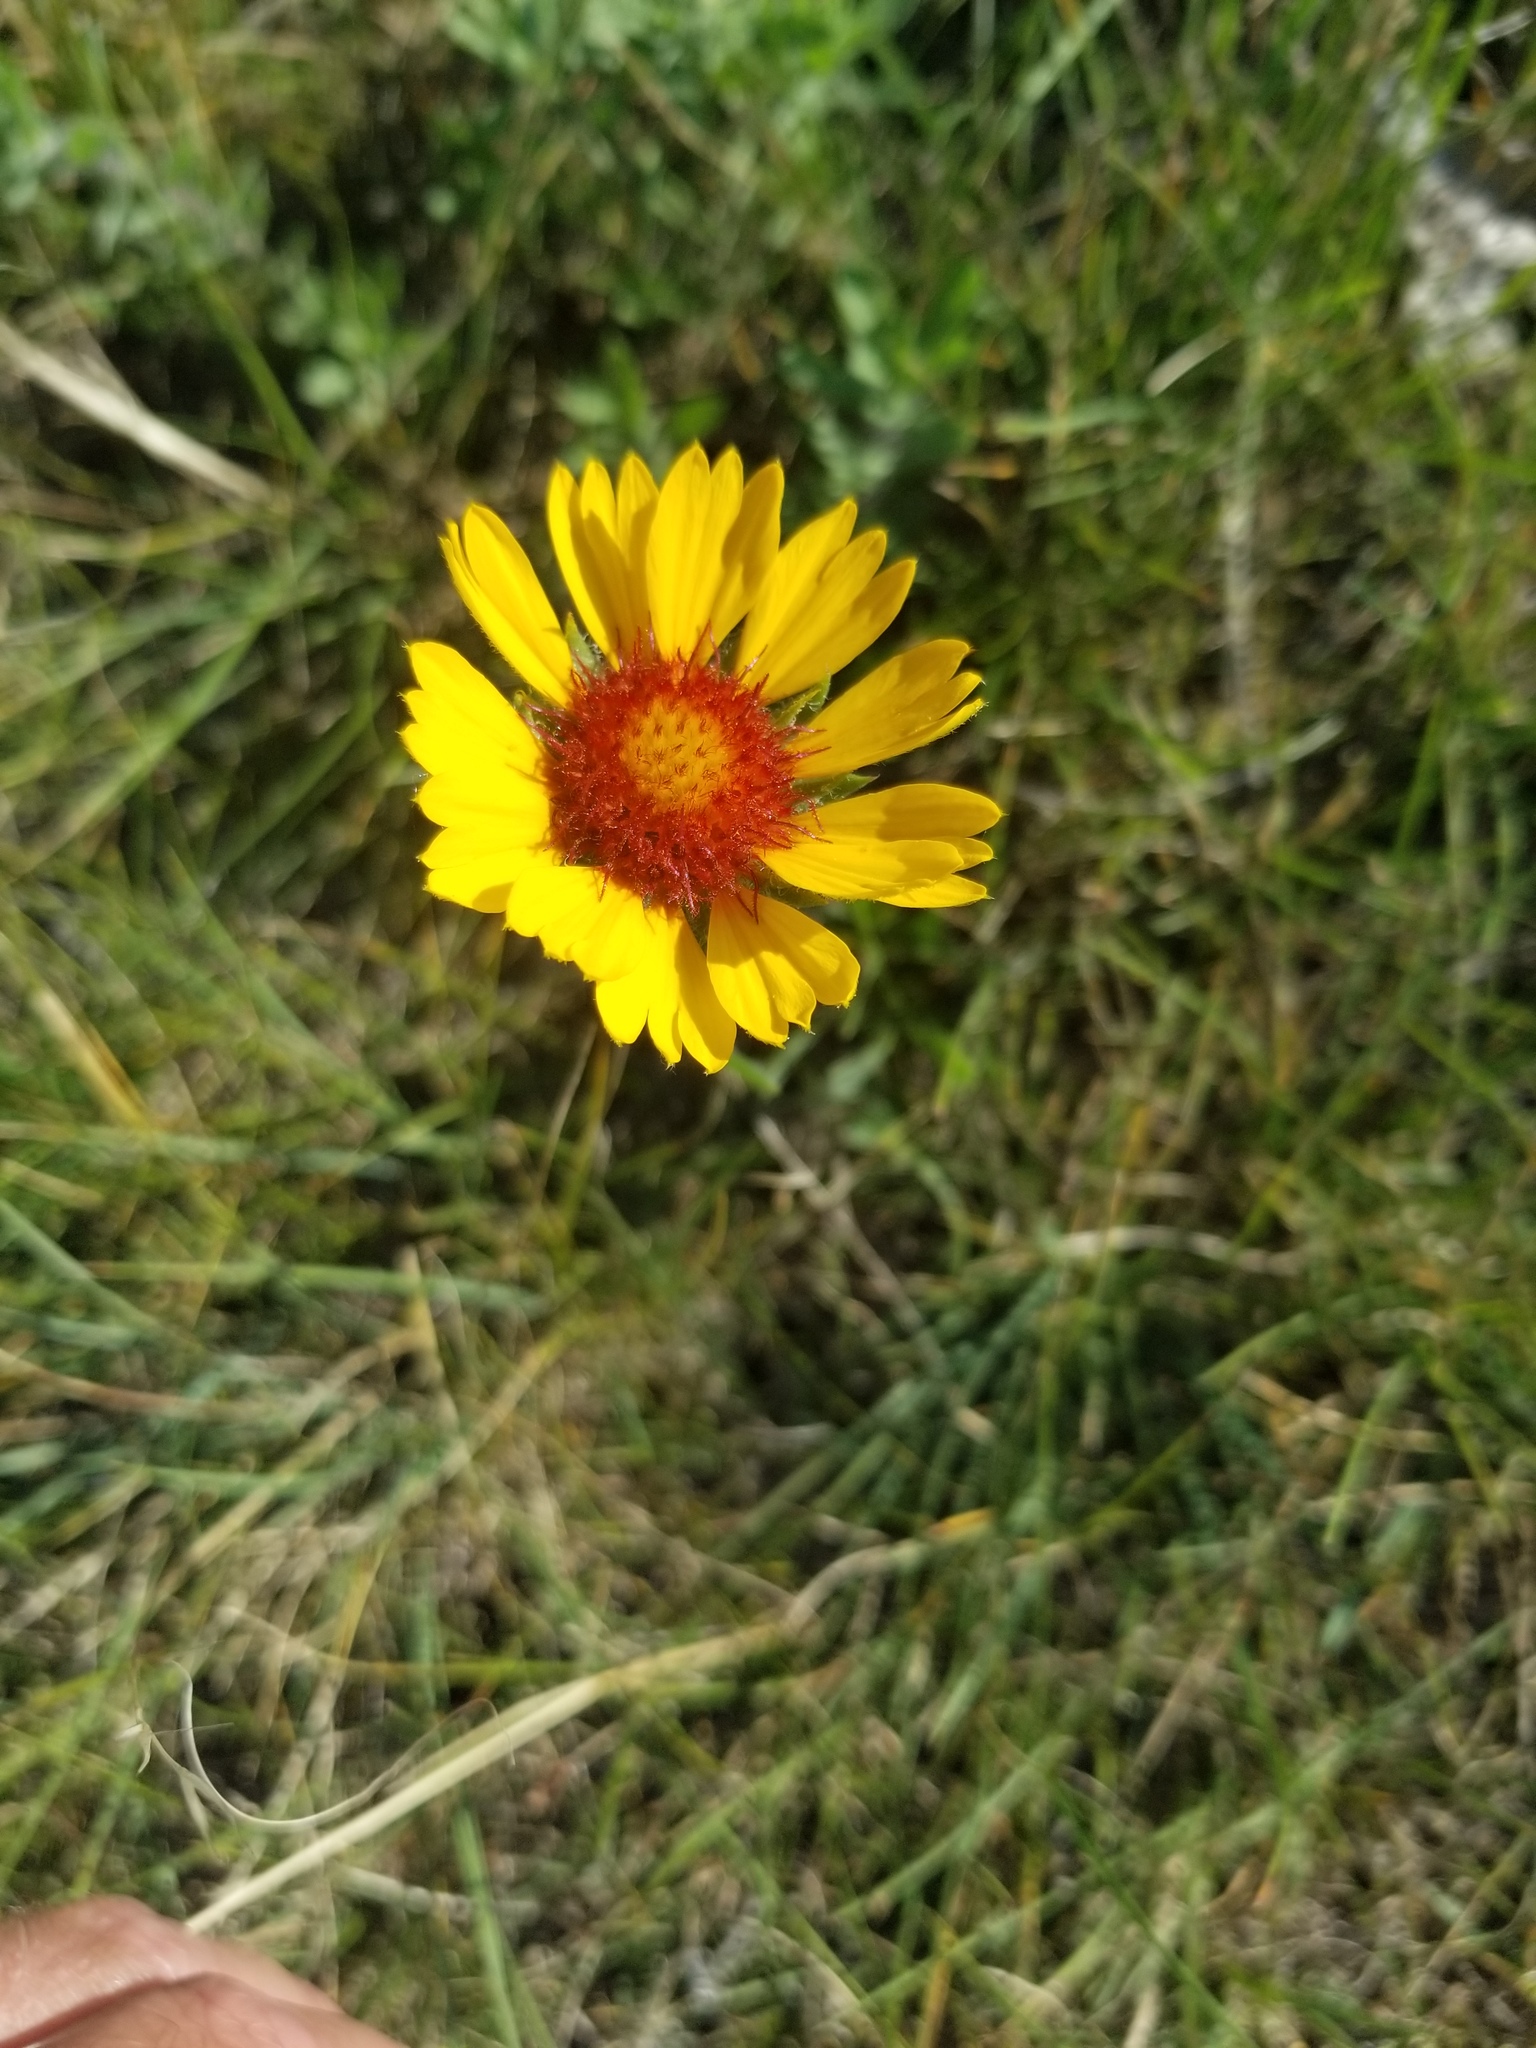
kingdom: Plantae
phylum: Tracheophyta
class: Magnoliopsida
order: Asterales
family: Asteraceae
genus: Gaillardia
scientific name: Gaillardia aristata
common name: Blanket-flower
